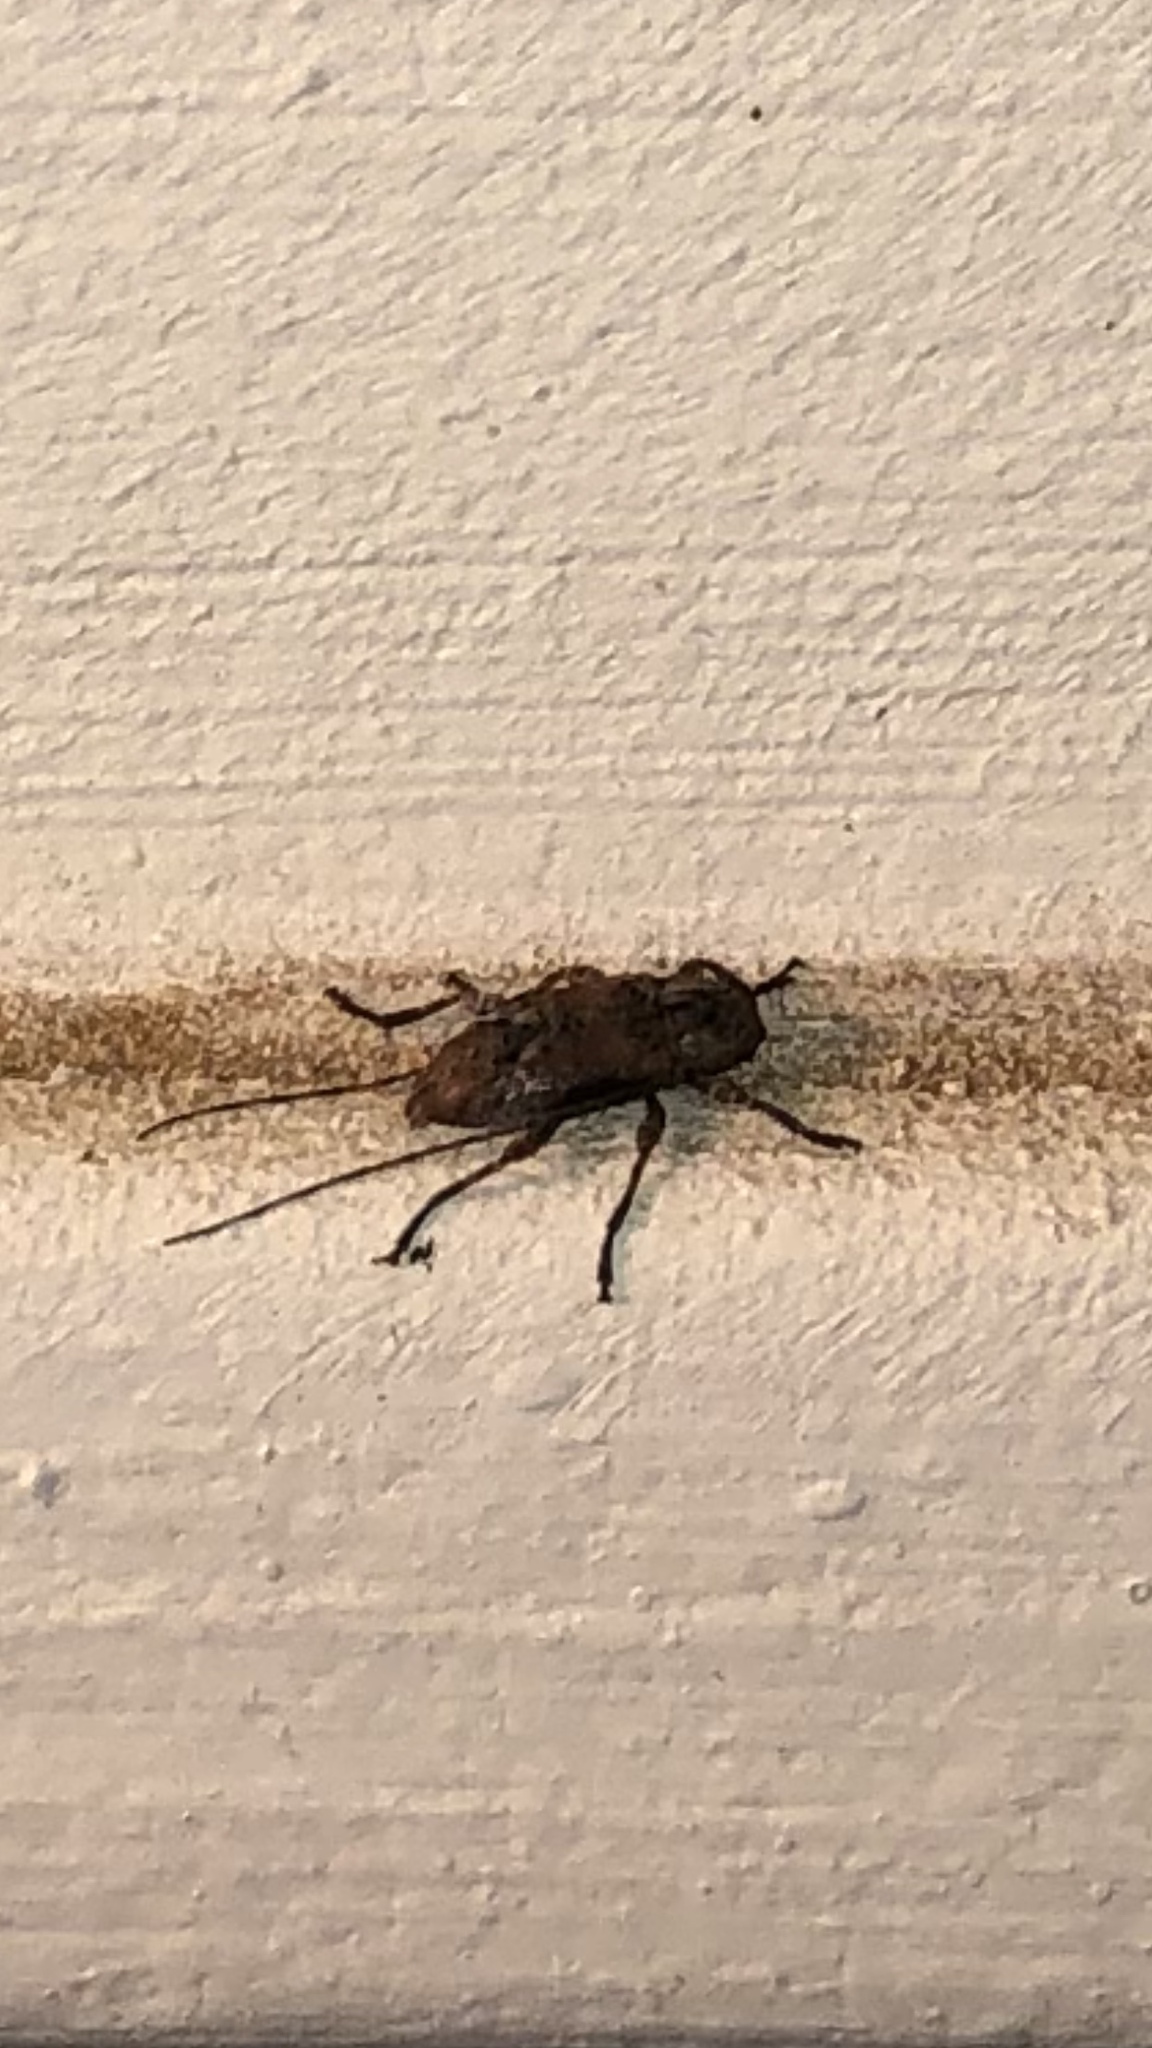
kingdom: Animalia
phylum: Arthropoda
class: Insecta
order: Coleoptera
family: Cerambycidae
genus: Sternidius
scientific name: Sternidius alpha
